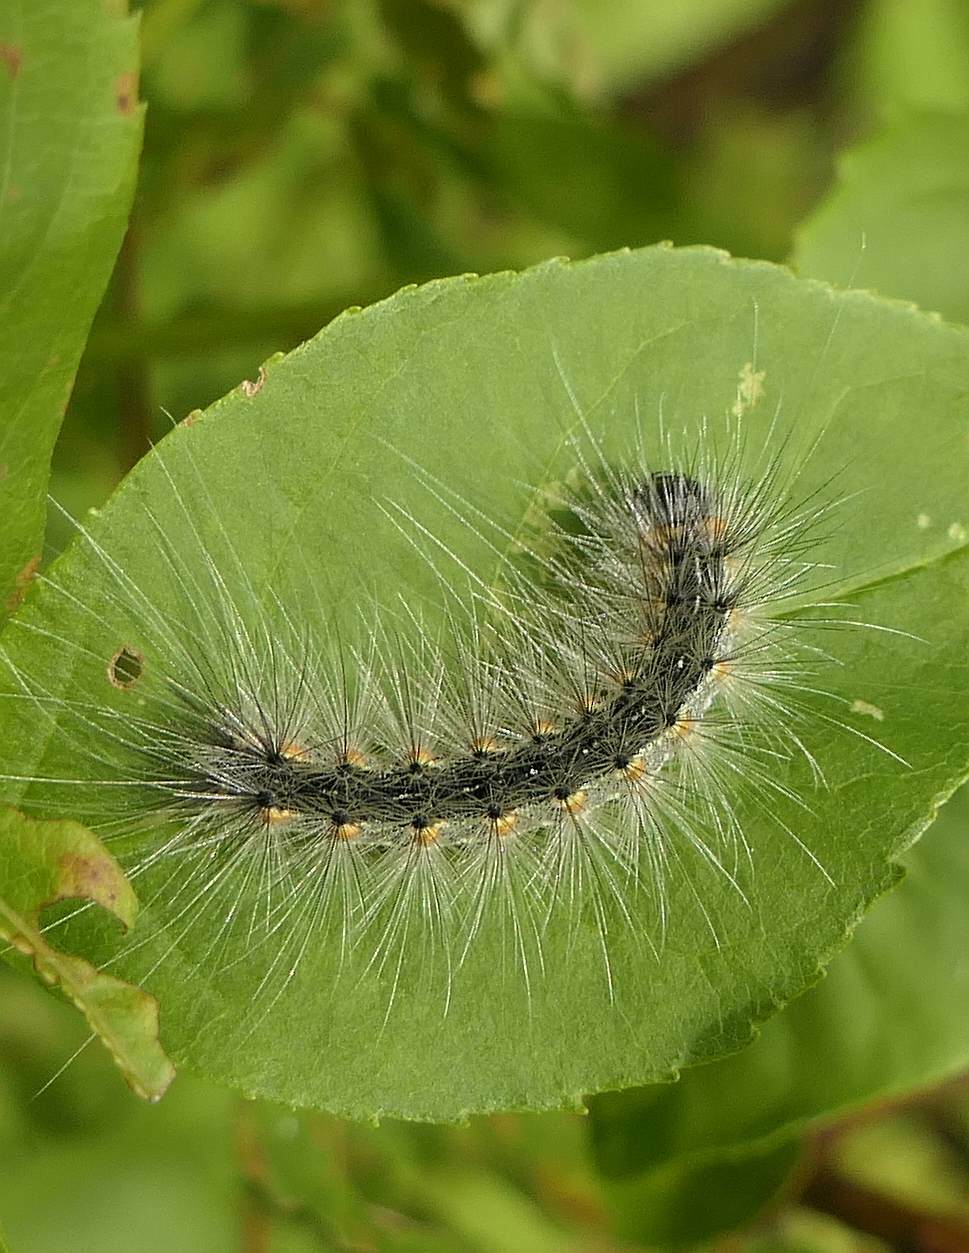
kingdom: Animalia
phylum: Arthropoda
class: Insecta
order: Lepidoptera
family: Erebidae
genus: Hyphantria
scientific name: Hyphantria cunea
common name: American white moth
